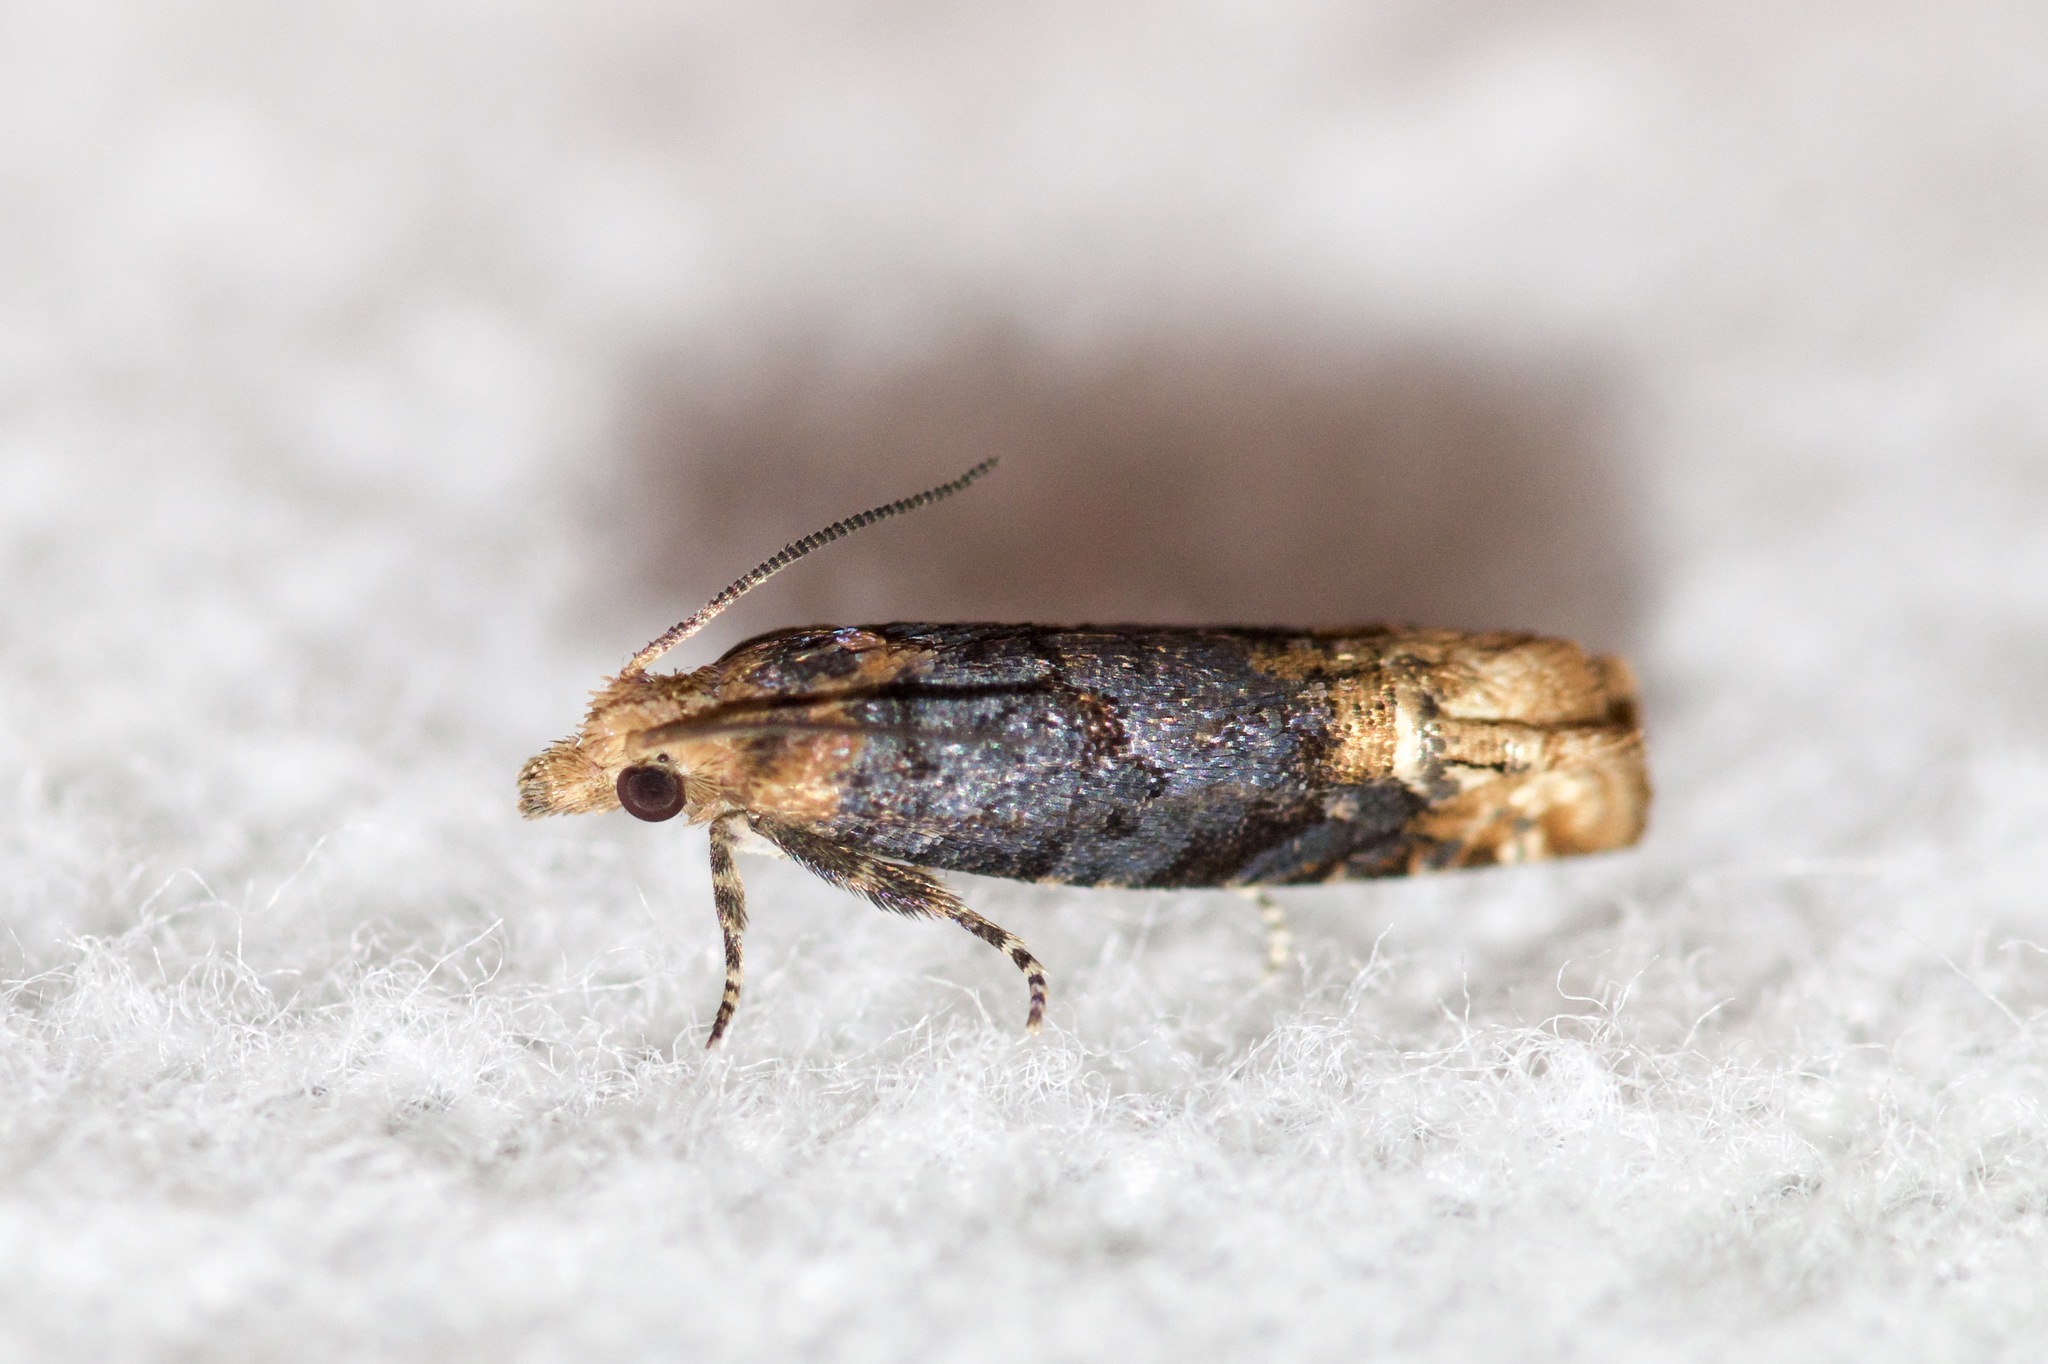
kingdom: Animalia
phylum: Arthropoda
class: Insecta
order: Lepidoptera
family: Tortricidae
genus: Eucosma
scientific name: Eucosma ochroterminana
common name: Buff-tipped eucosma moth
